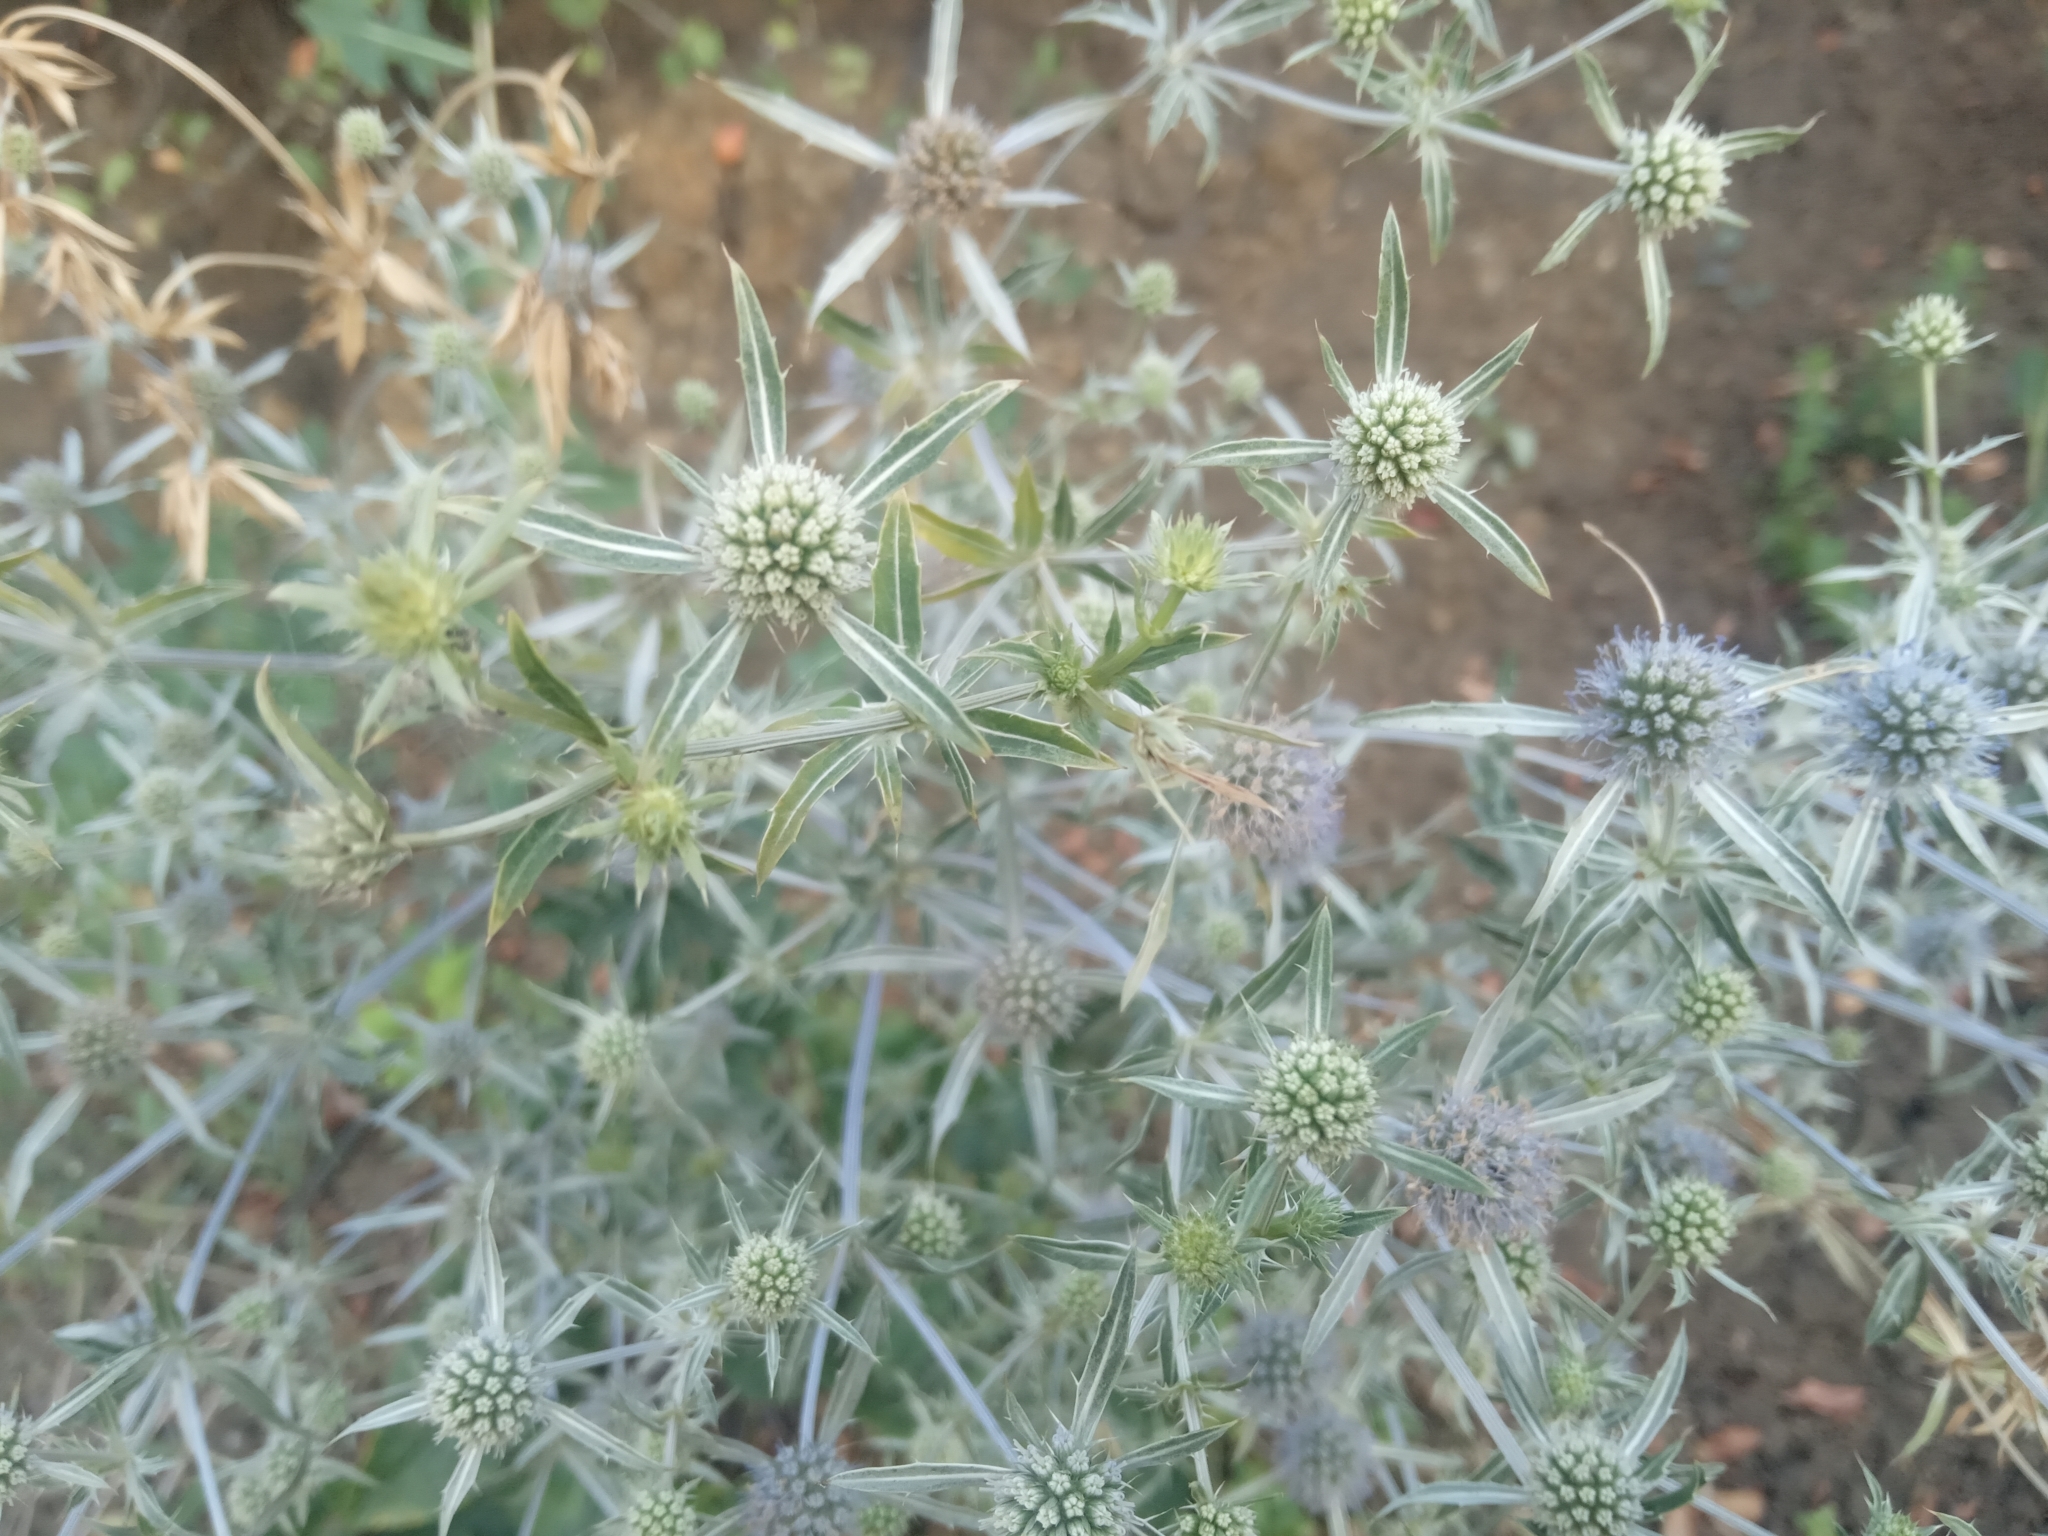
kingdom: Plantae
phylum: Tracheophyta
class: Magnoliopsida
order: Apiales
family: Apiaceae
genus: Eryngium
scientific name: Eryngium campestre
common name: Field eryngo
